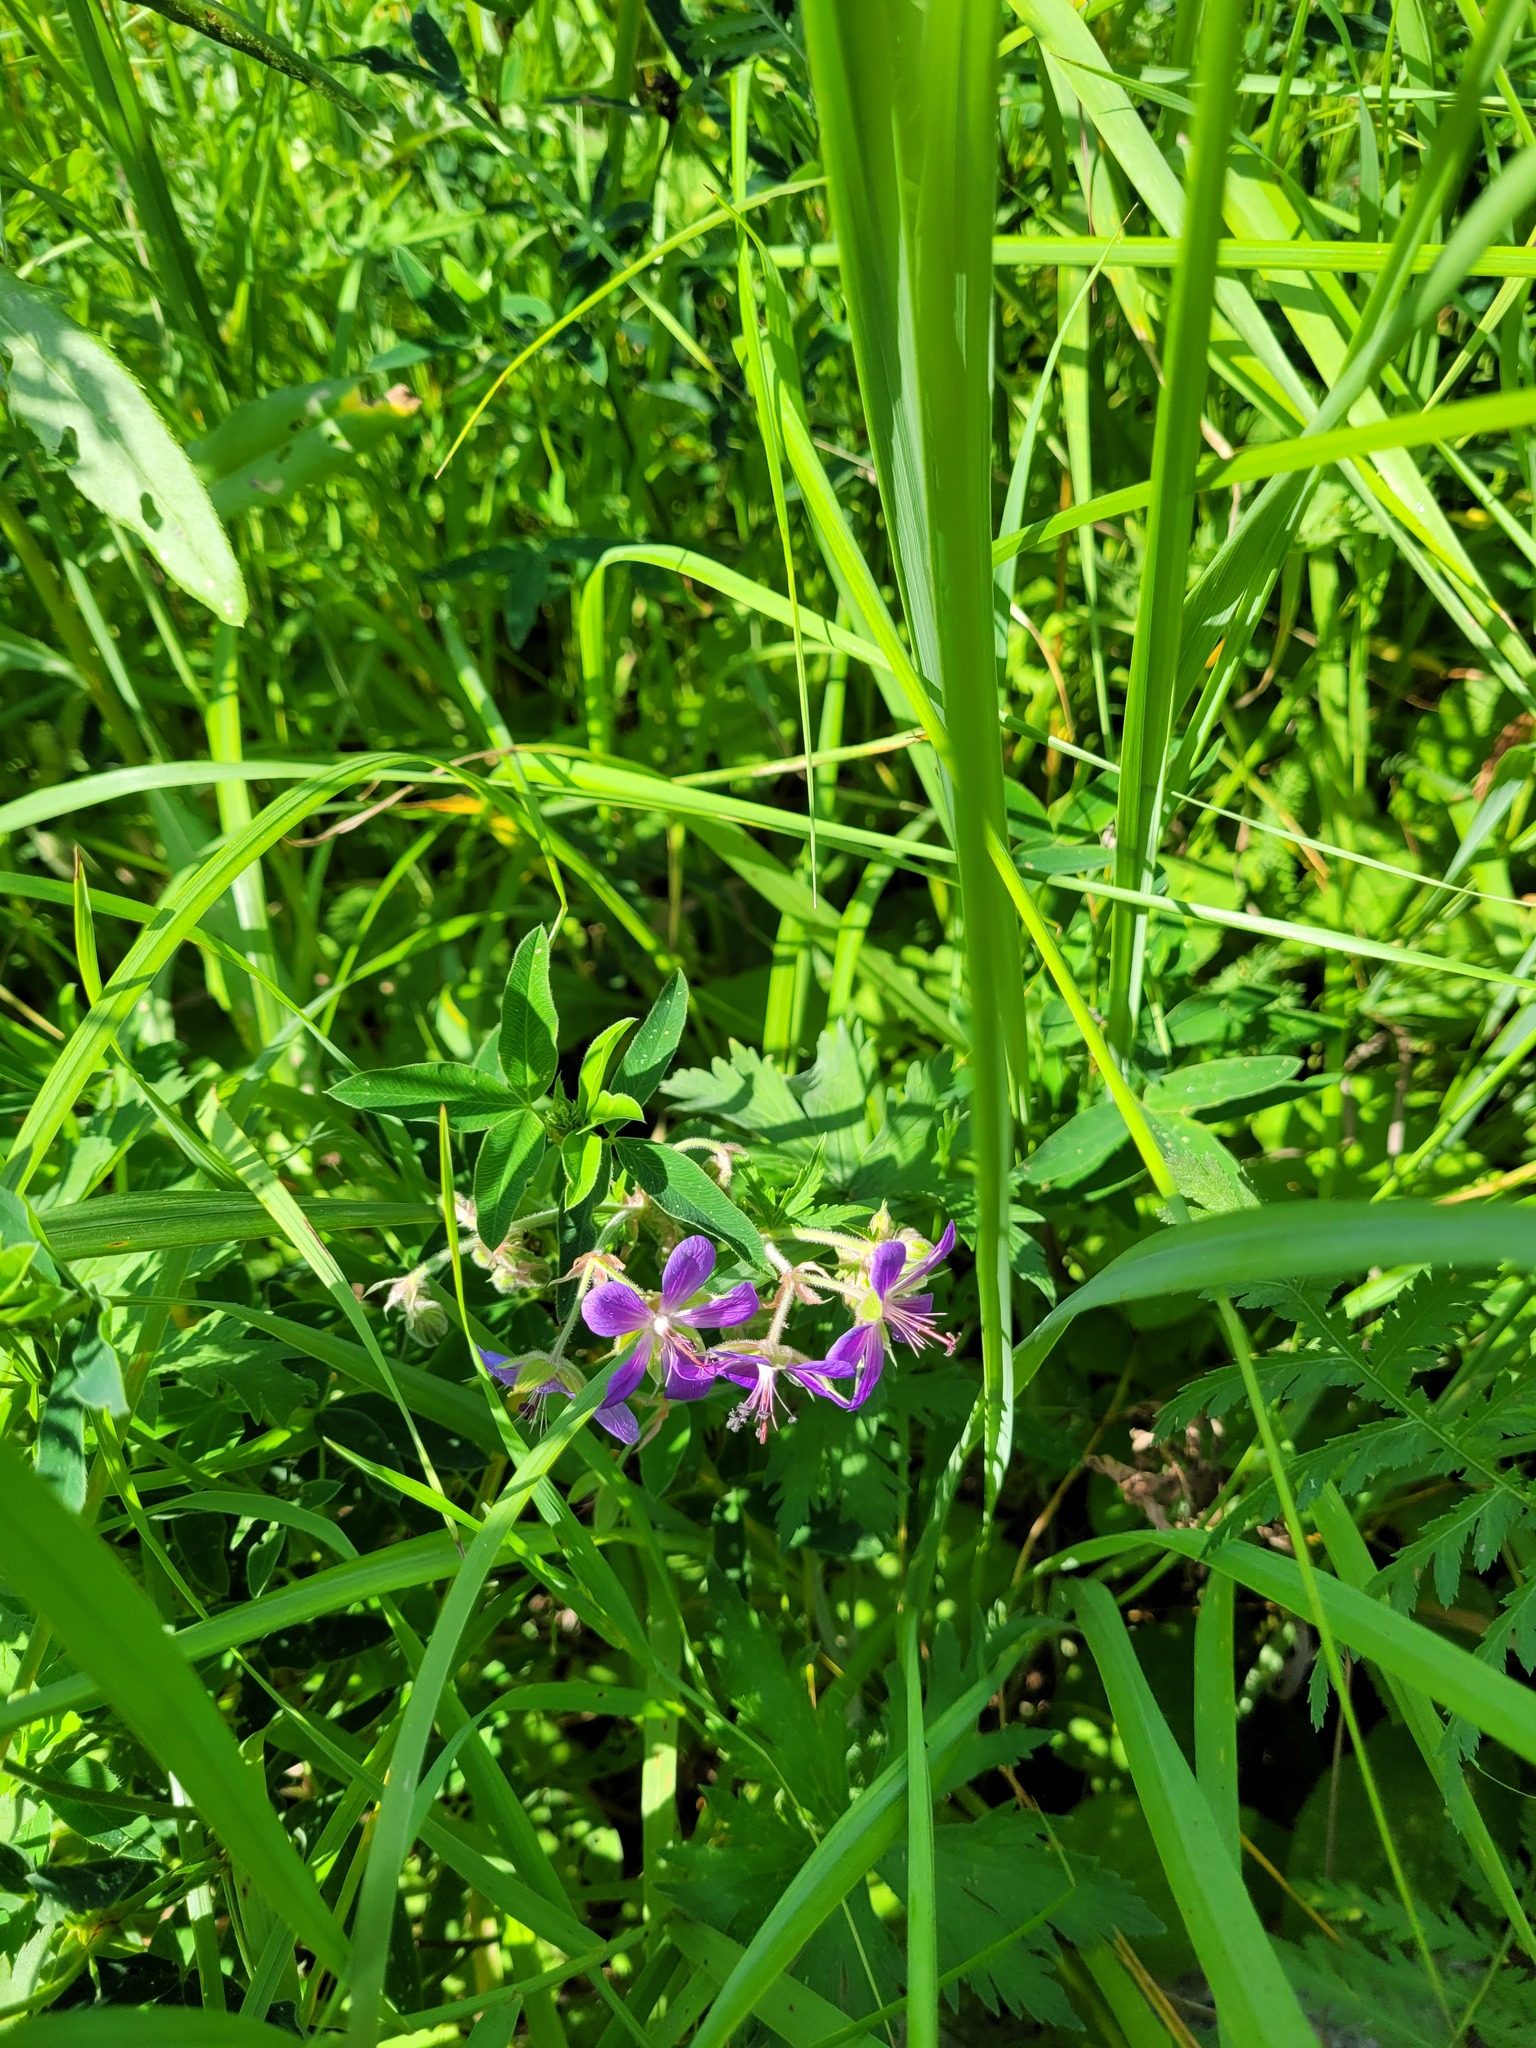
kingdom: Plantae
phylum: Tracheophyta
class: Magnoliopsida
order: Geraniales
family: Geraniaceae
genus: Geranium
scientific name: Geranium pratense
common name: Meadow crane's-bill
